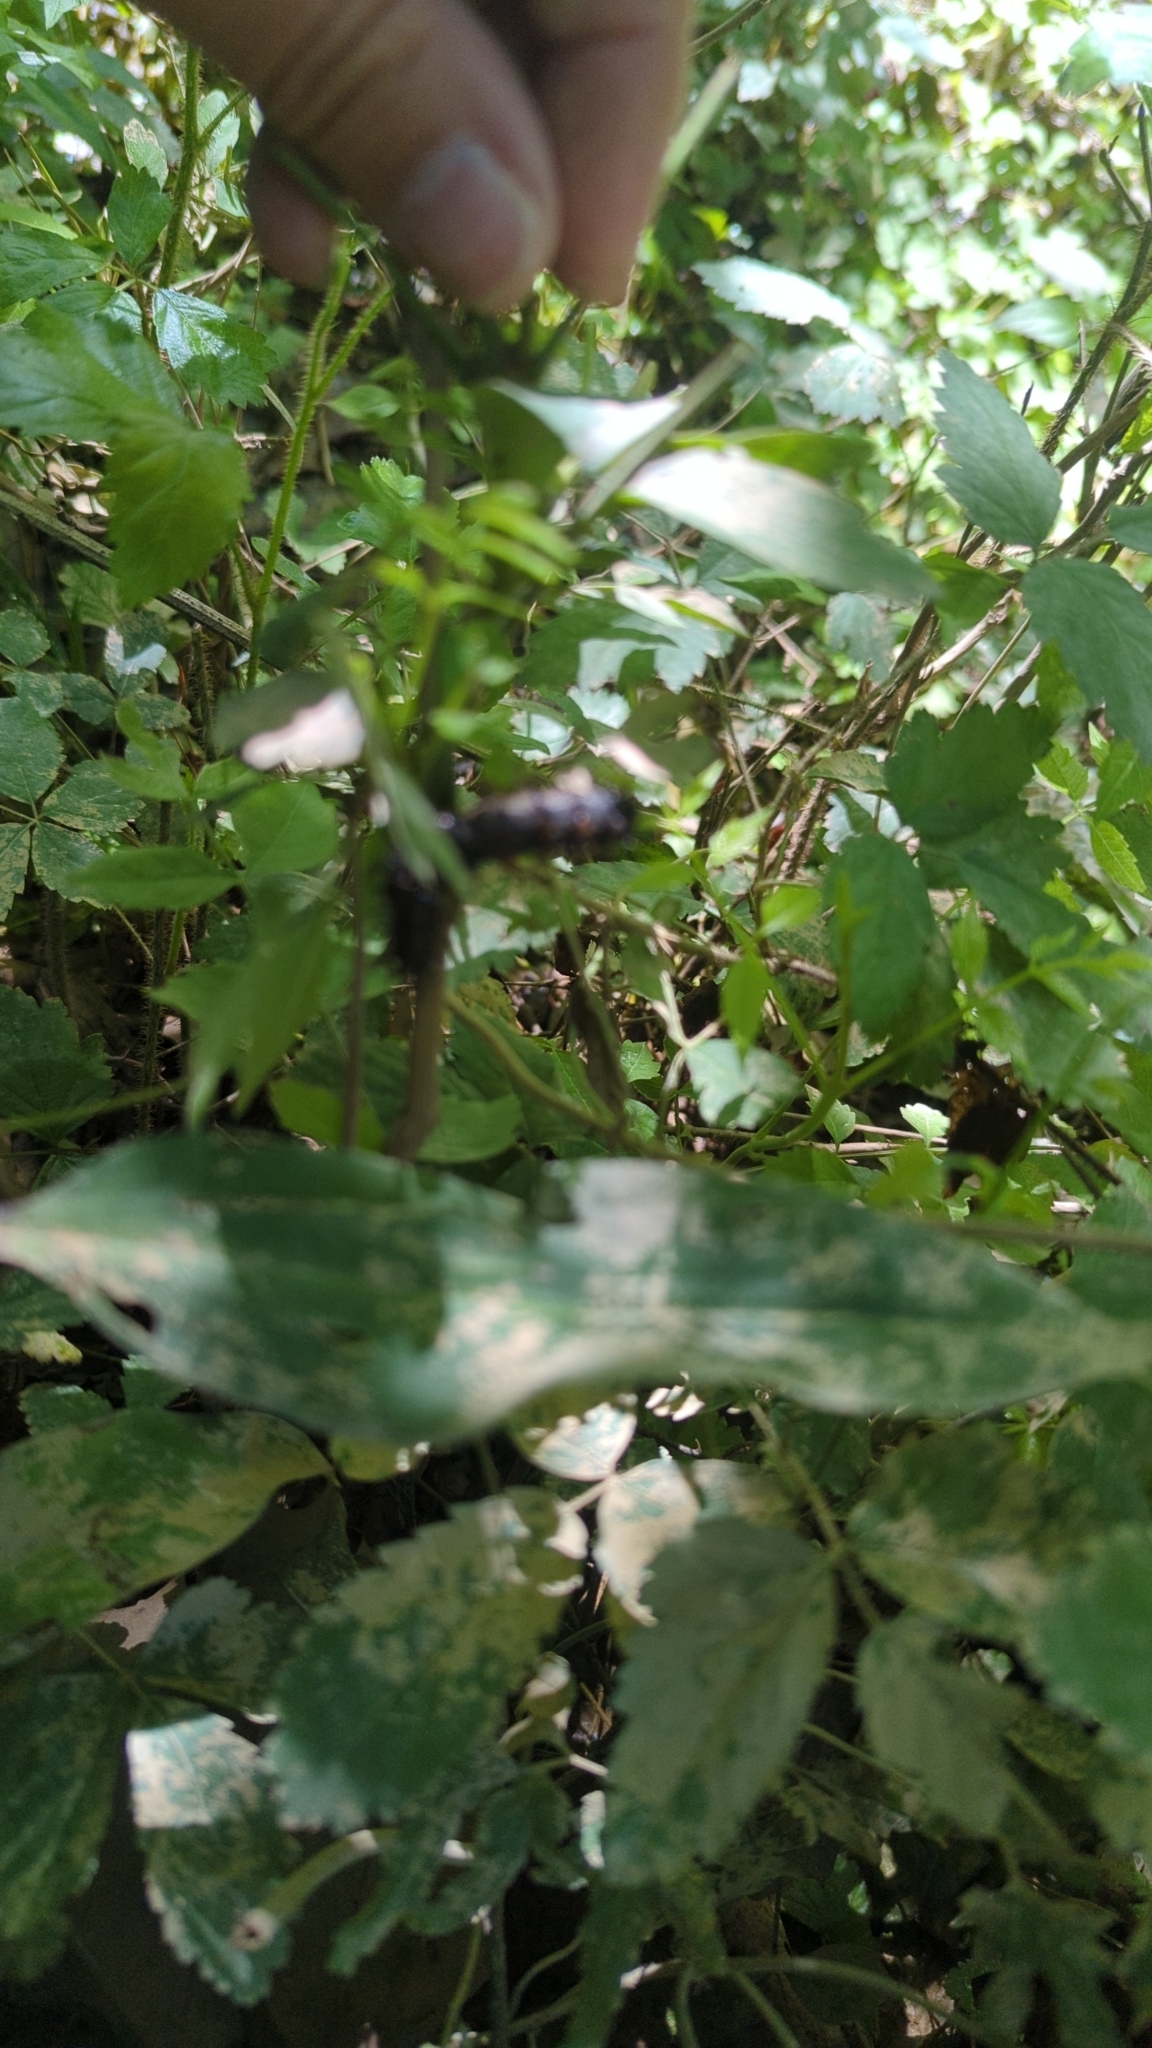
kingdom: Plantae
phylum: Tracheophyta
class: Magnoliopsida
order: Rosales
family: Rosaceae
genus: Rubus
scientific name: Rubus trivialis
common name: Southern dewberry
